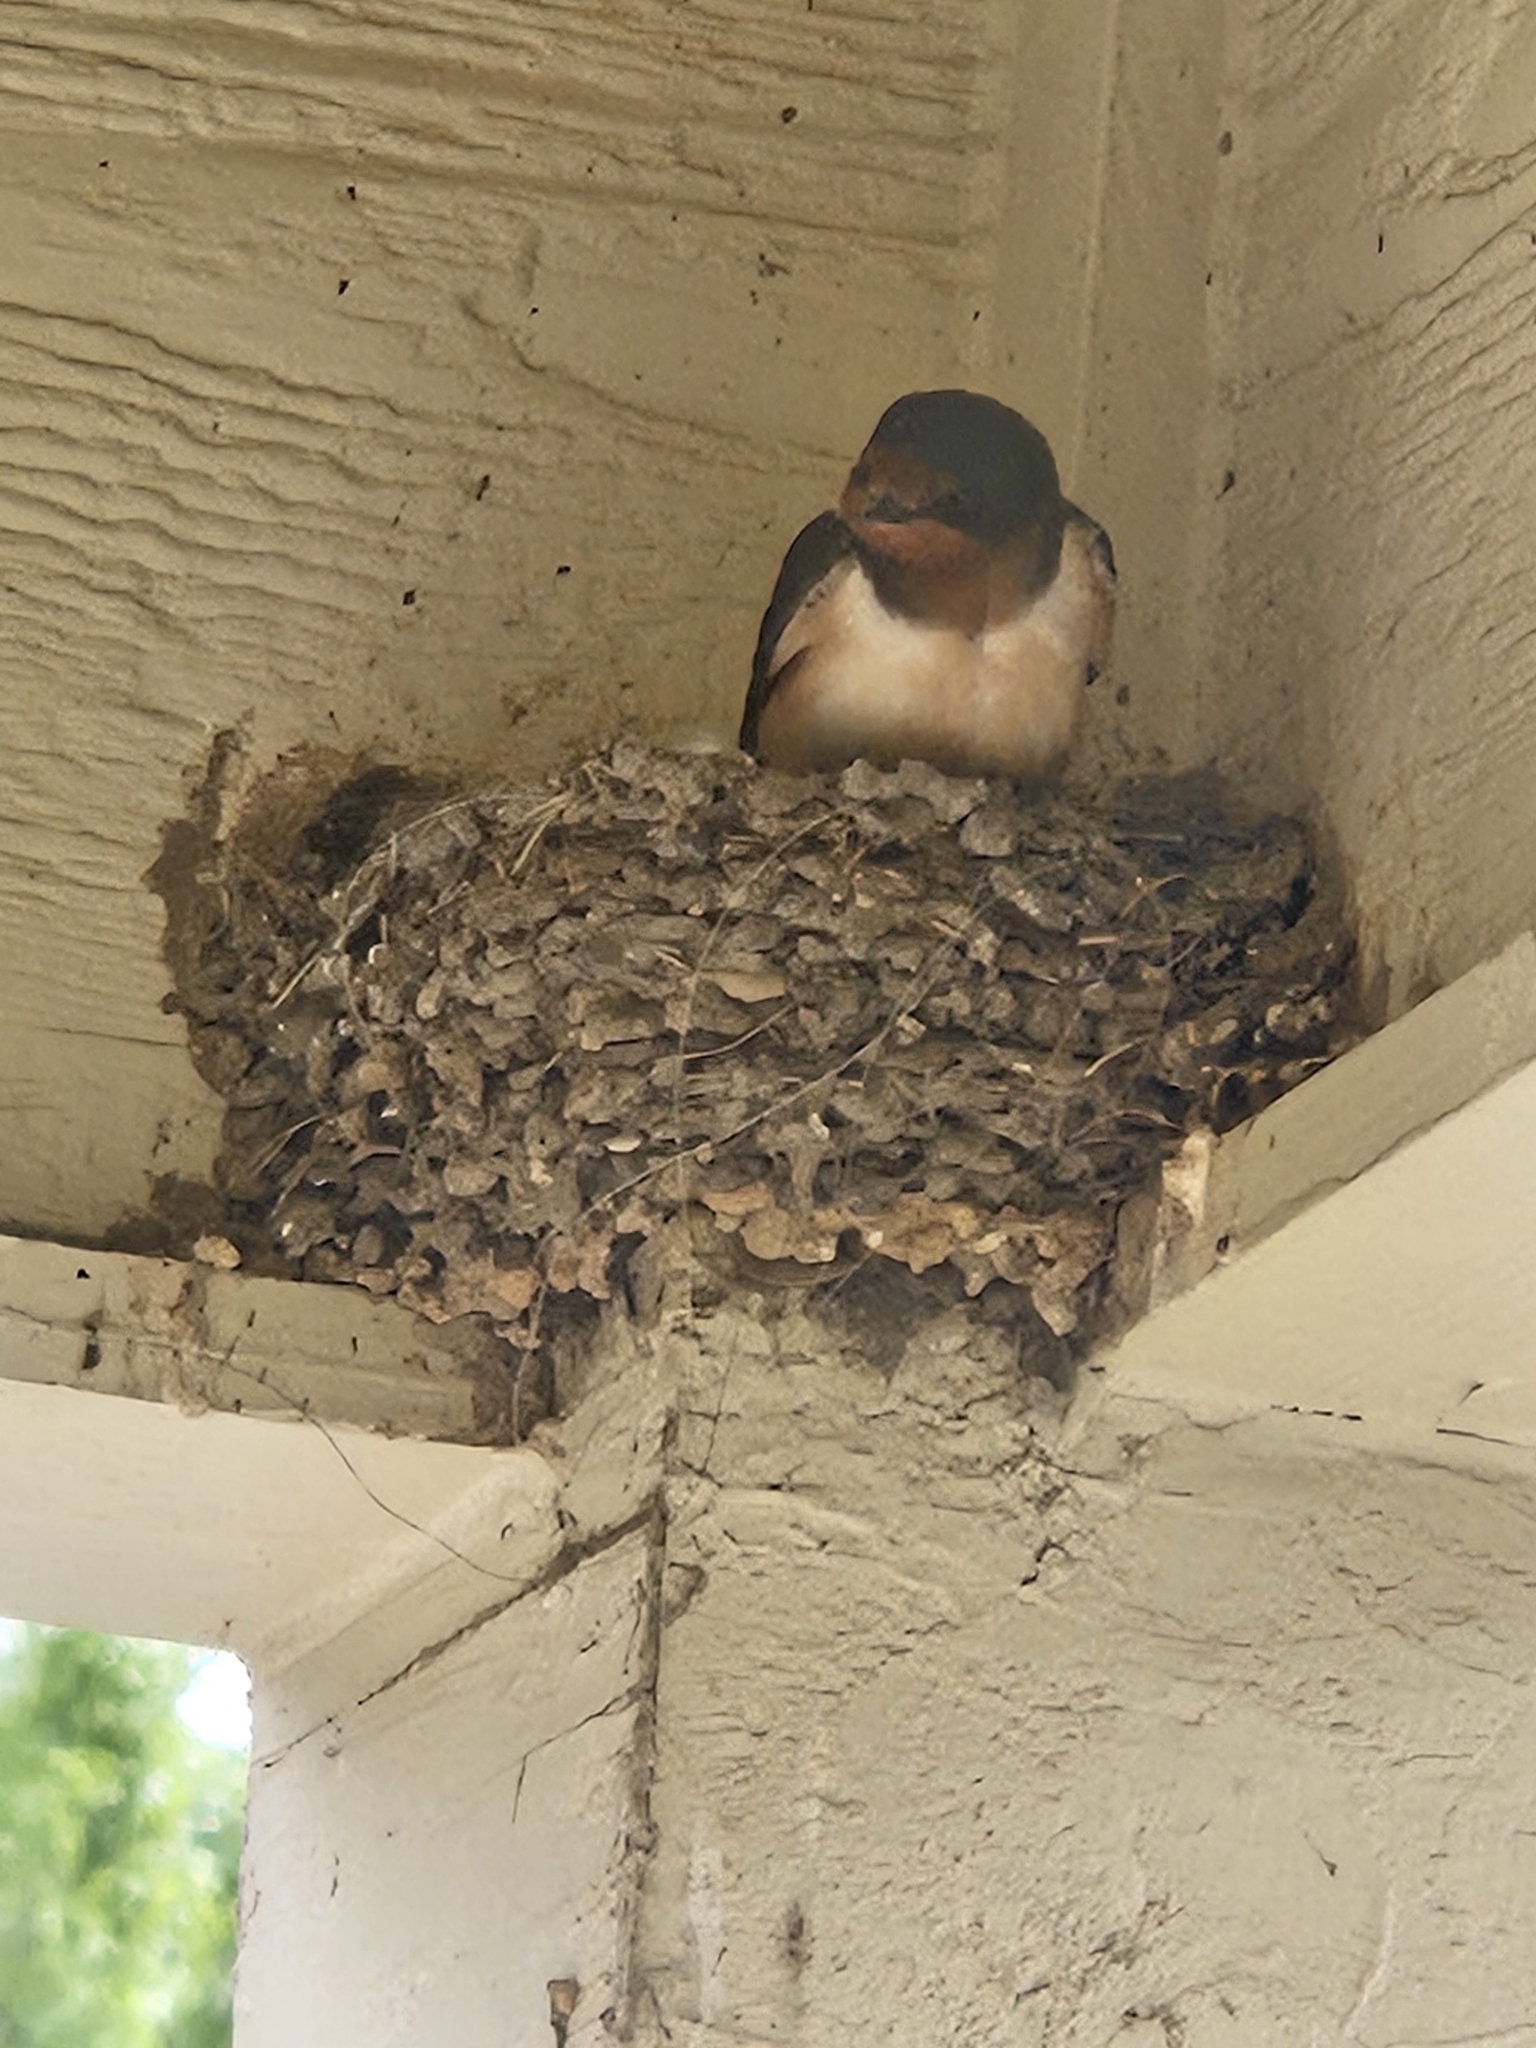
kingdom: Animalia
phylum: Chordata
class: Aves
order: Passeriformes
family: Hirundinidae
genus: Hirundo
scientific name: Hirundo rustica
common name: Barn swallow
